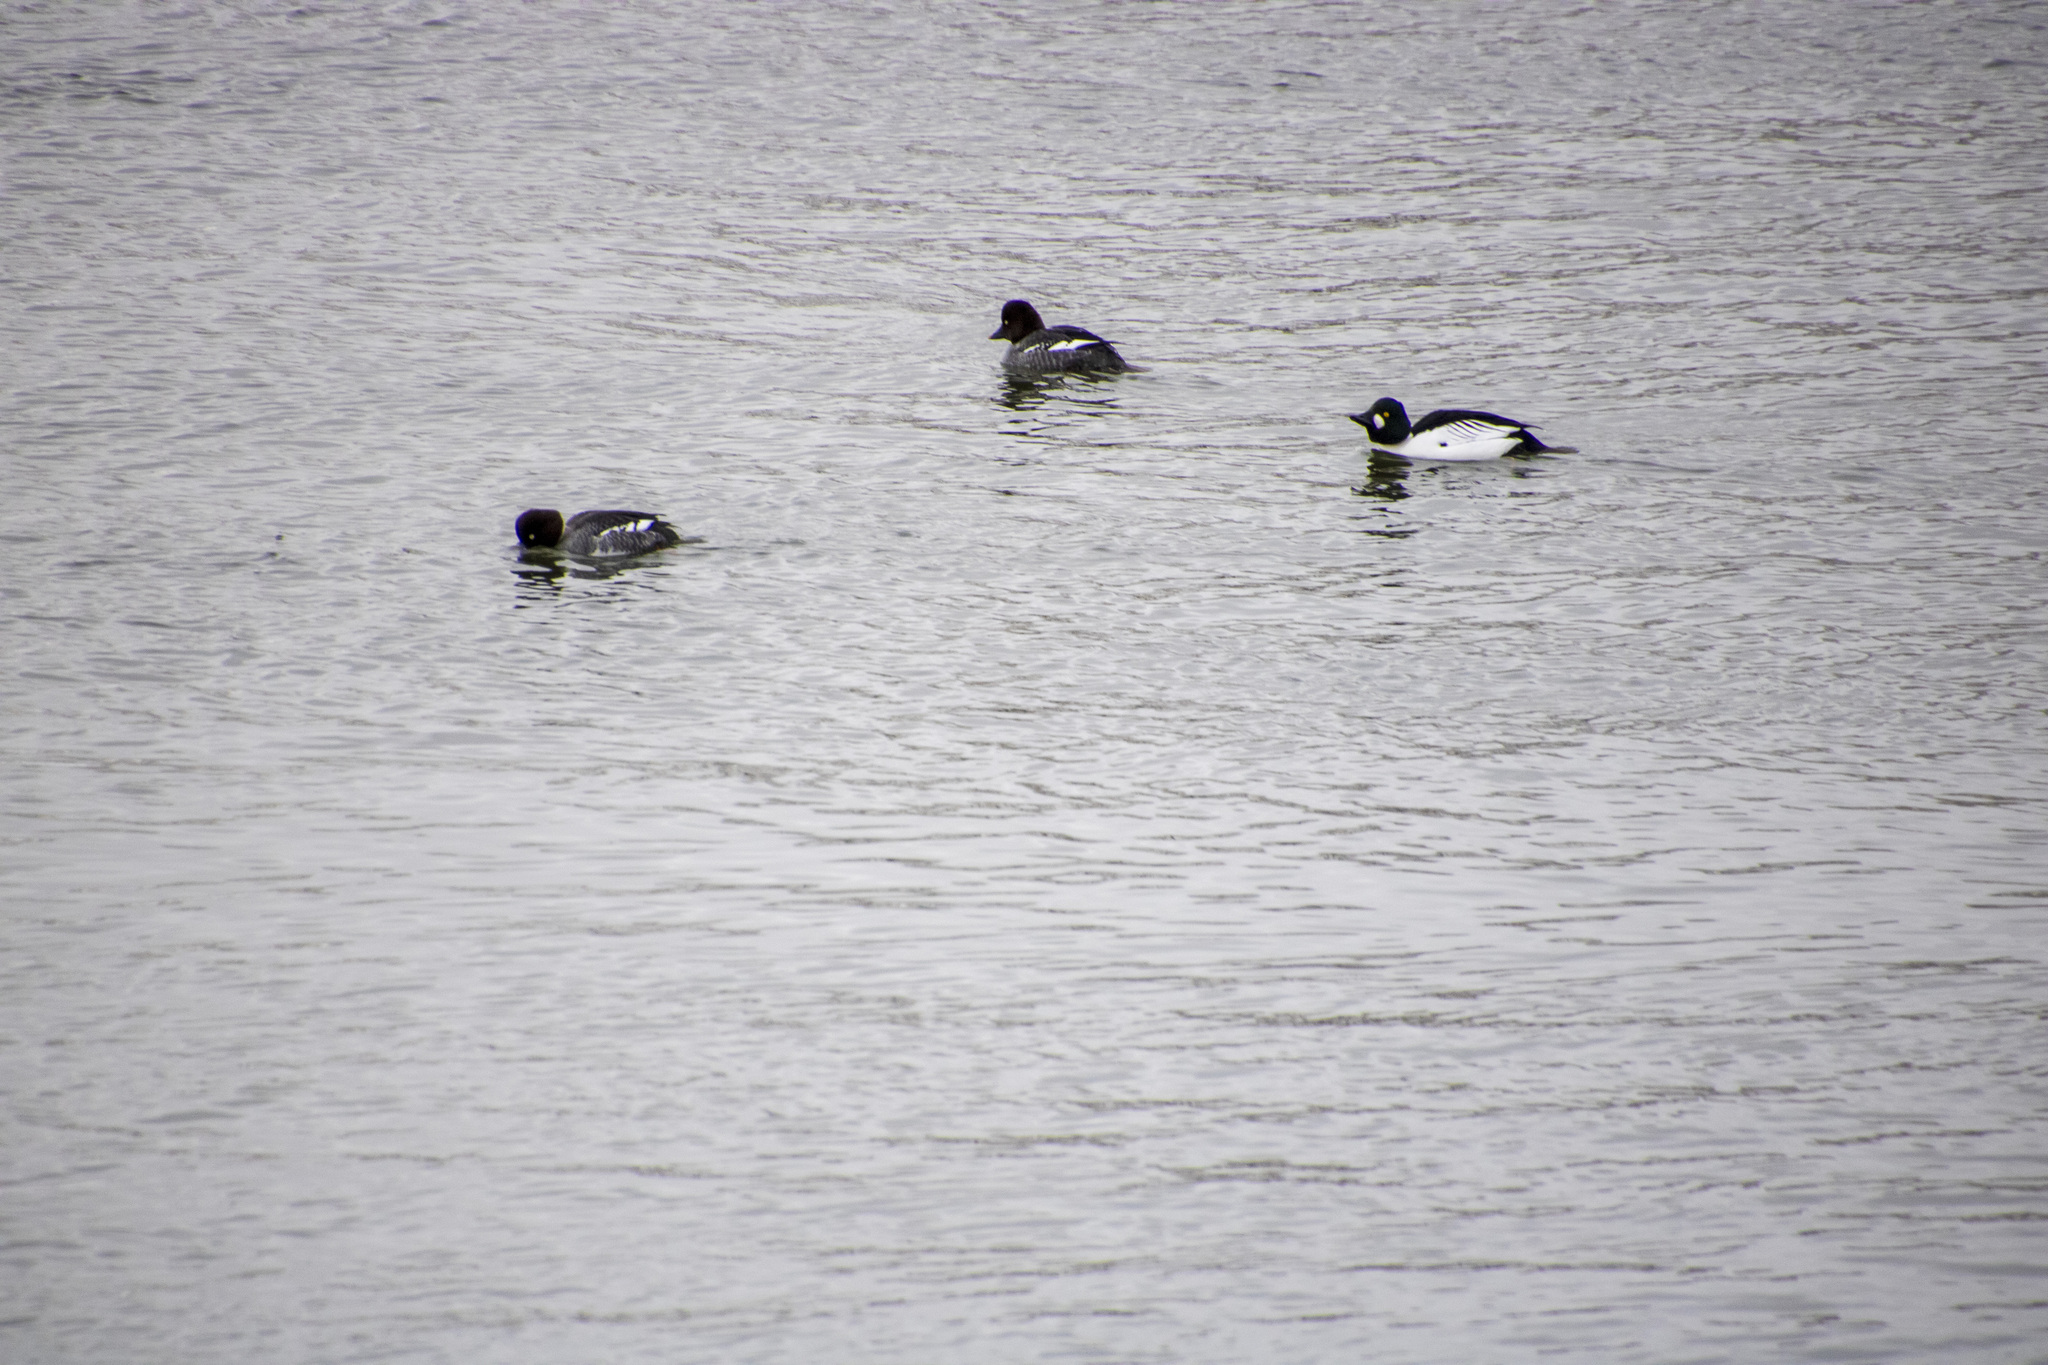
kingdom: Animalia
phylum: Chordata
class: Aves
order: Anseriformes
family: Anatidae
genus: Bucephala
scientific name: Bucephala clangula
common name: Common goldeneye
